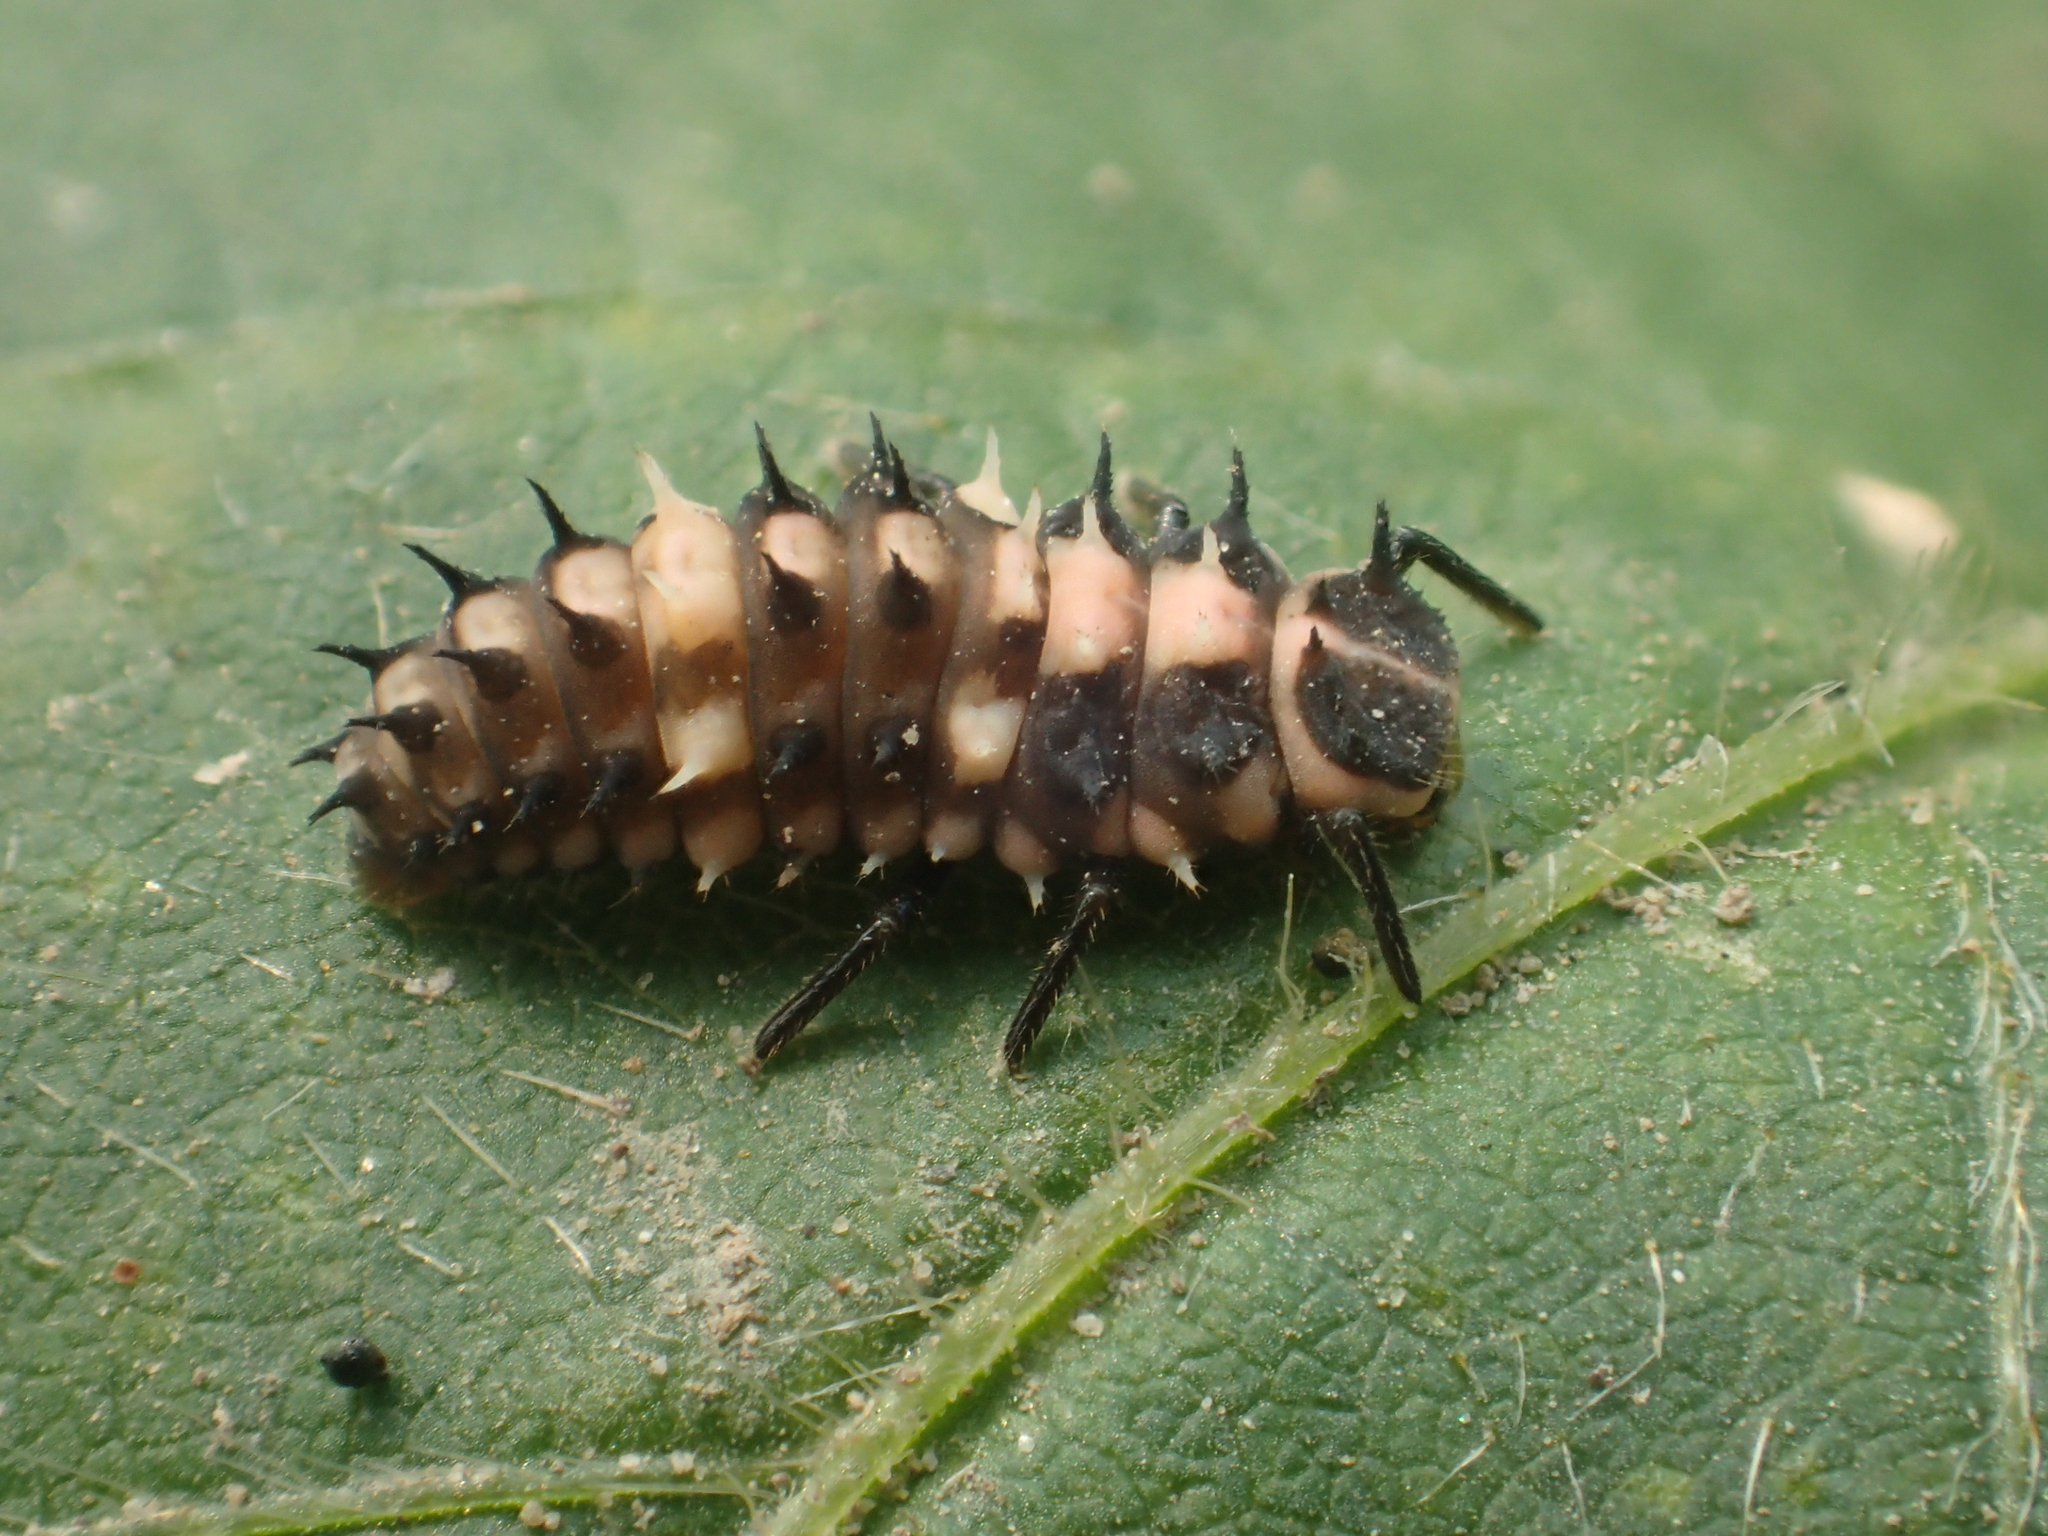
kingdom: Animalia
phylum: Arthropoda
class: Insecta
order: Coleoptera
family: Coccinellidae
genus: Cheilomenes
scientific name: Cheilomenes sexmaculata
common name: Ladybird beetle
